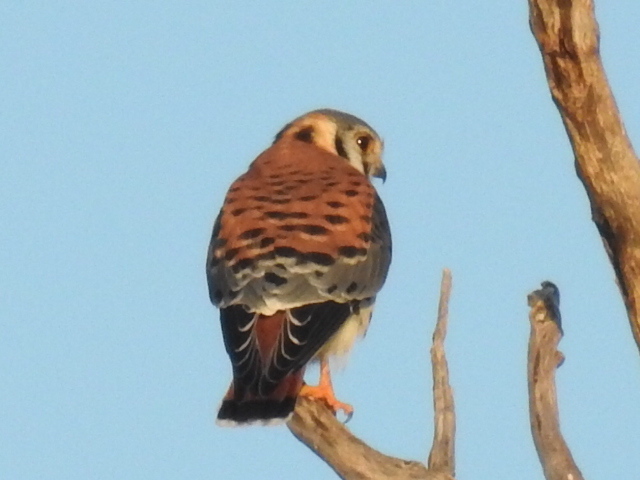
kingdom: Animalia
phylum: Chordata
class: Aves
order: Falconiformes
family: Falconidae
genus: Falco
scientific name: Falco sparverius
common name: American kestrel
